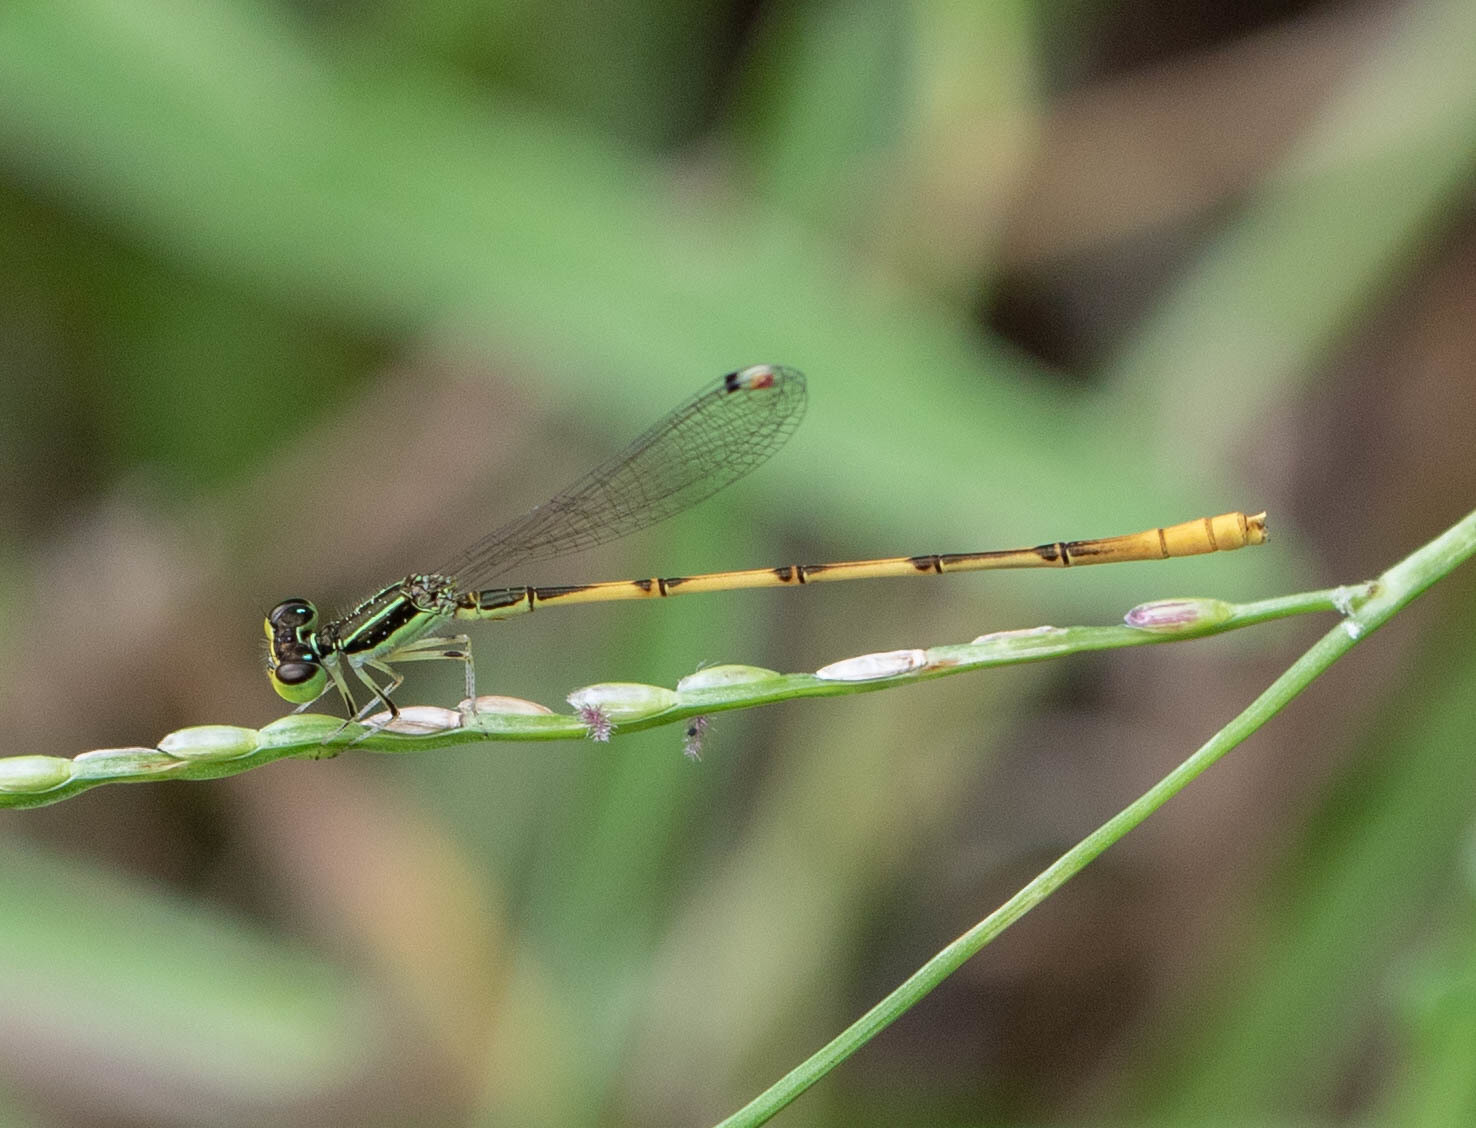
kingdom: Animalia
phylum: Arthropoda
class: Insecta
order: Odonata
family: Coenagrionidae
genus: Ischnura
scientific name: Ischnura hastata
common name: Citrine forktail
